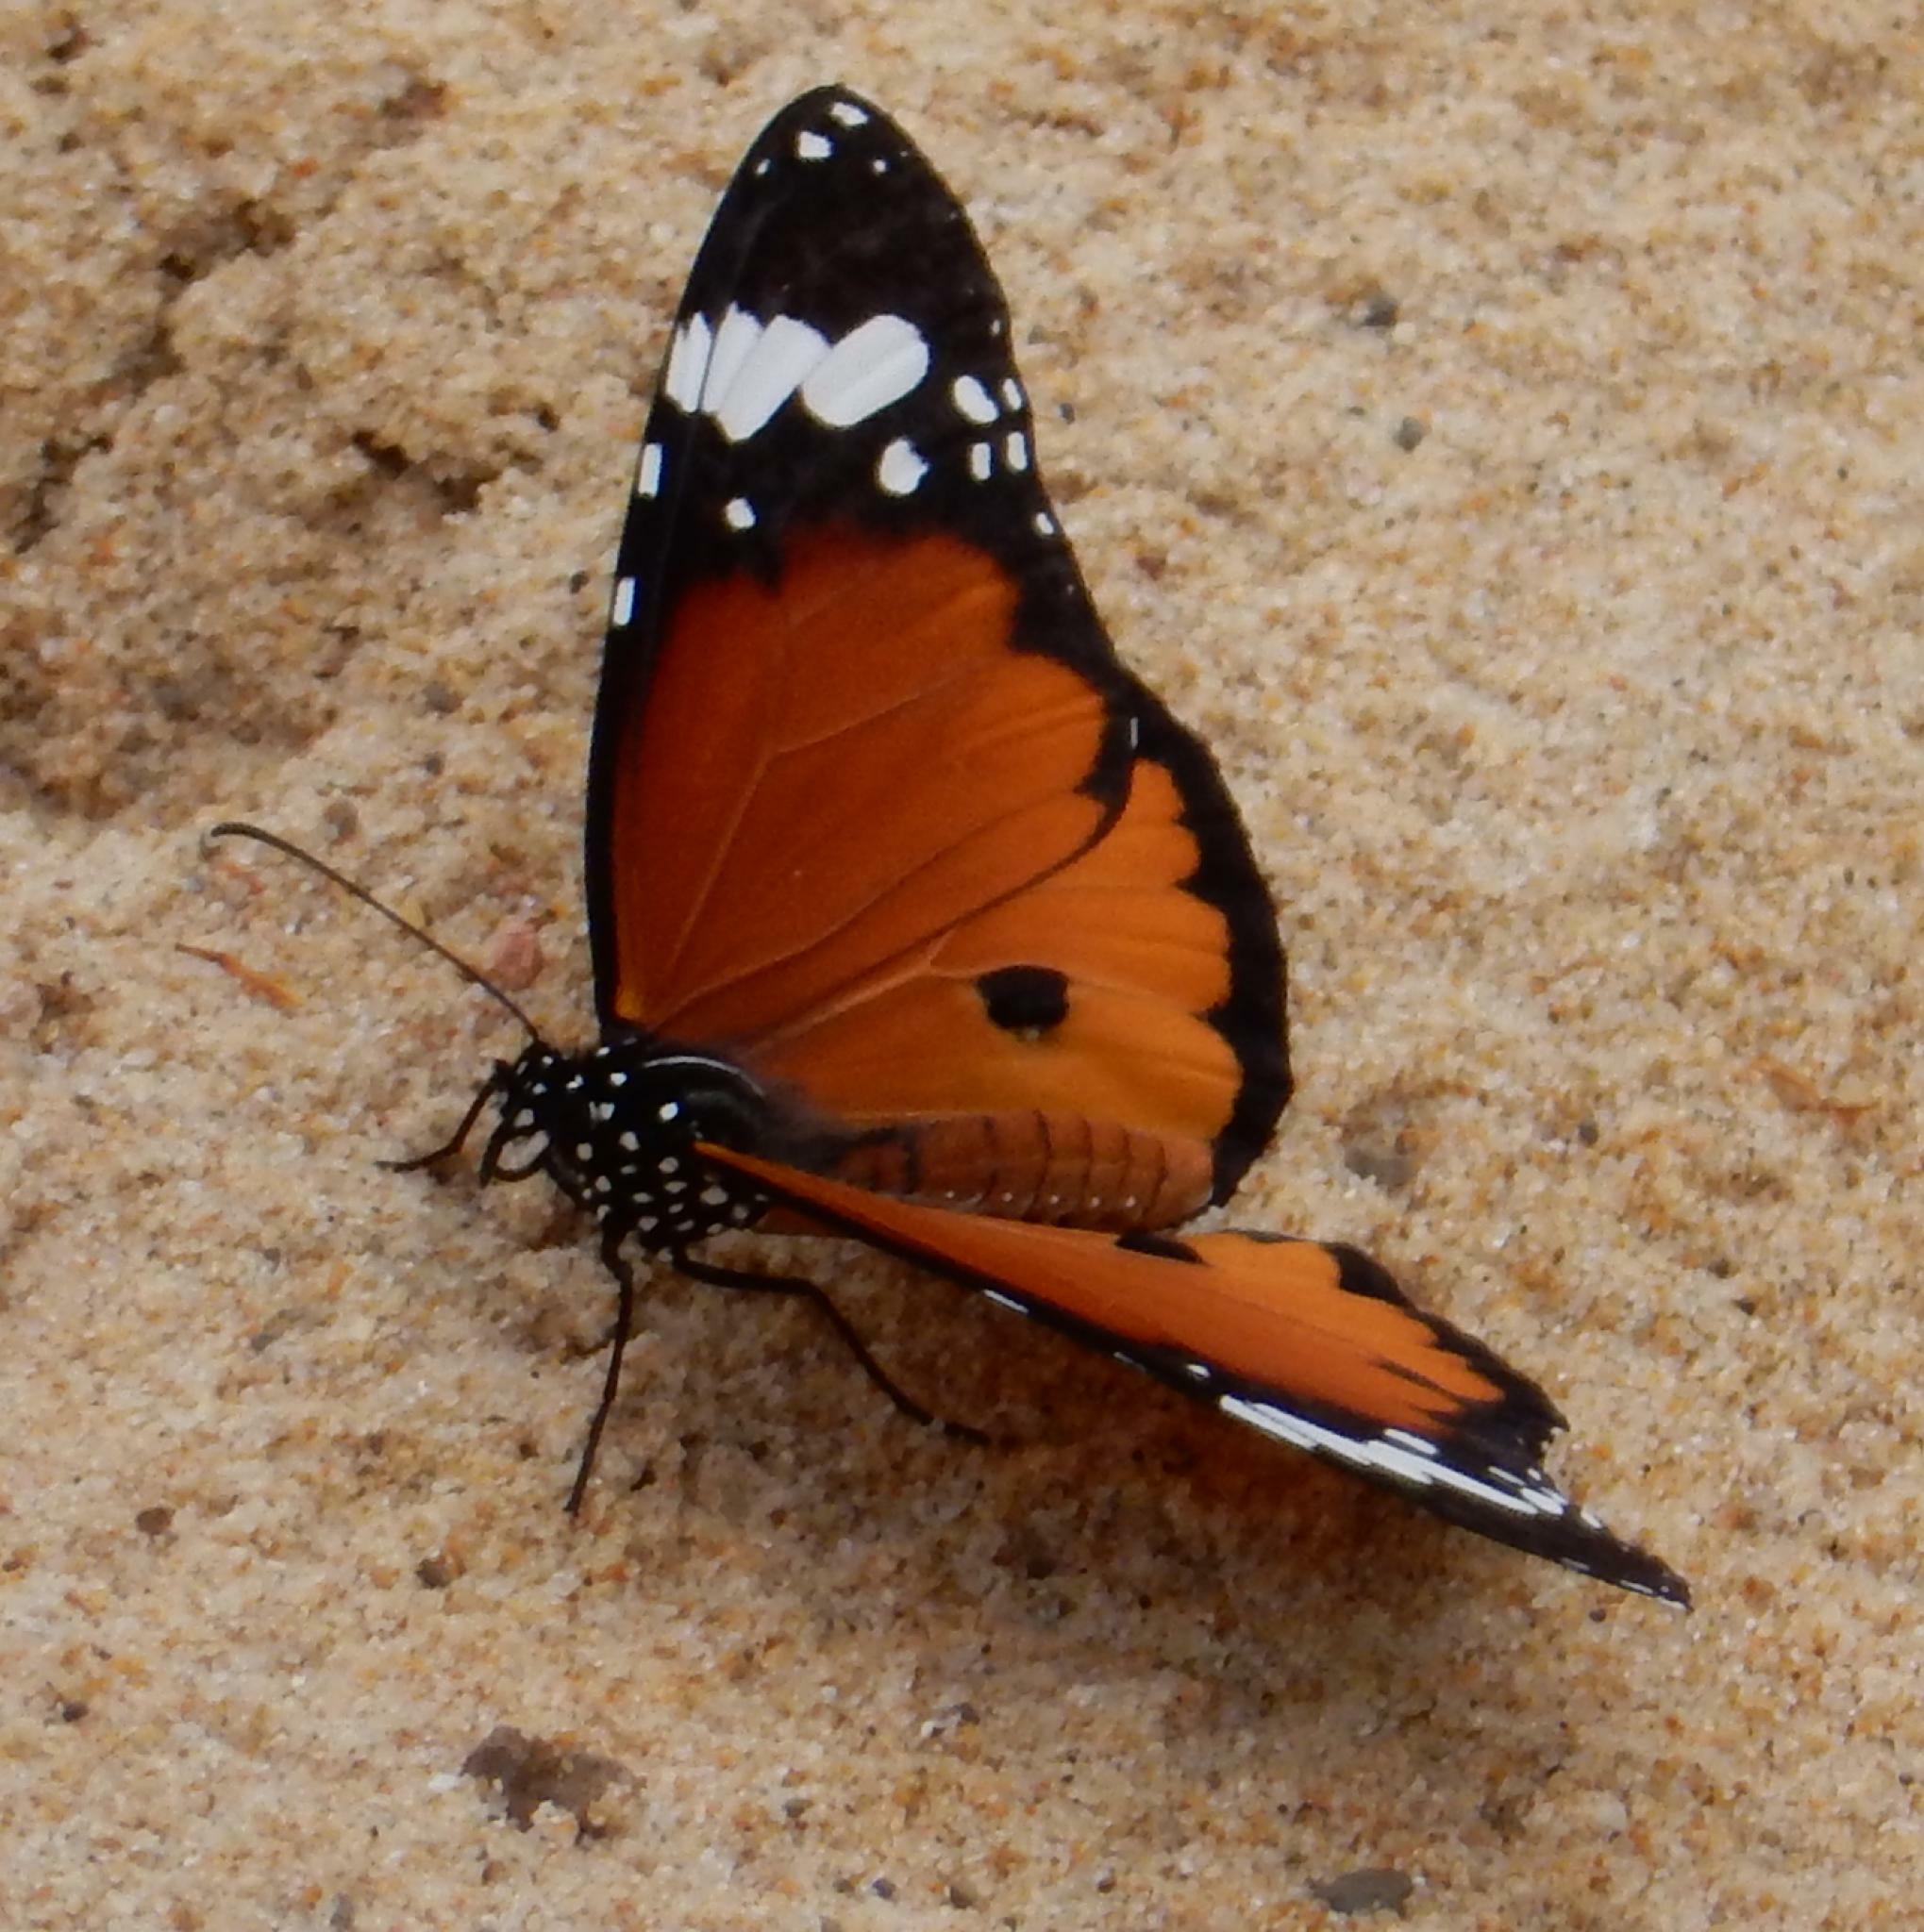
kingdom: Animalia
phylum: Arthropoda
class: Insecta
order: Lepidoptera
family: Nymphalidae
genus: Danaus
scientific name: Danaus chrysippus
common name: Plain tiger
